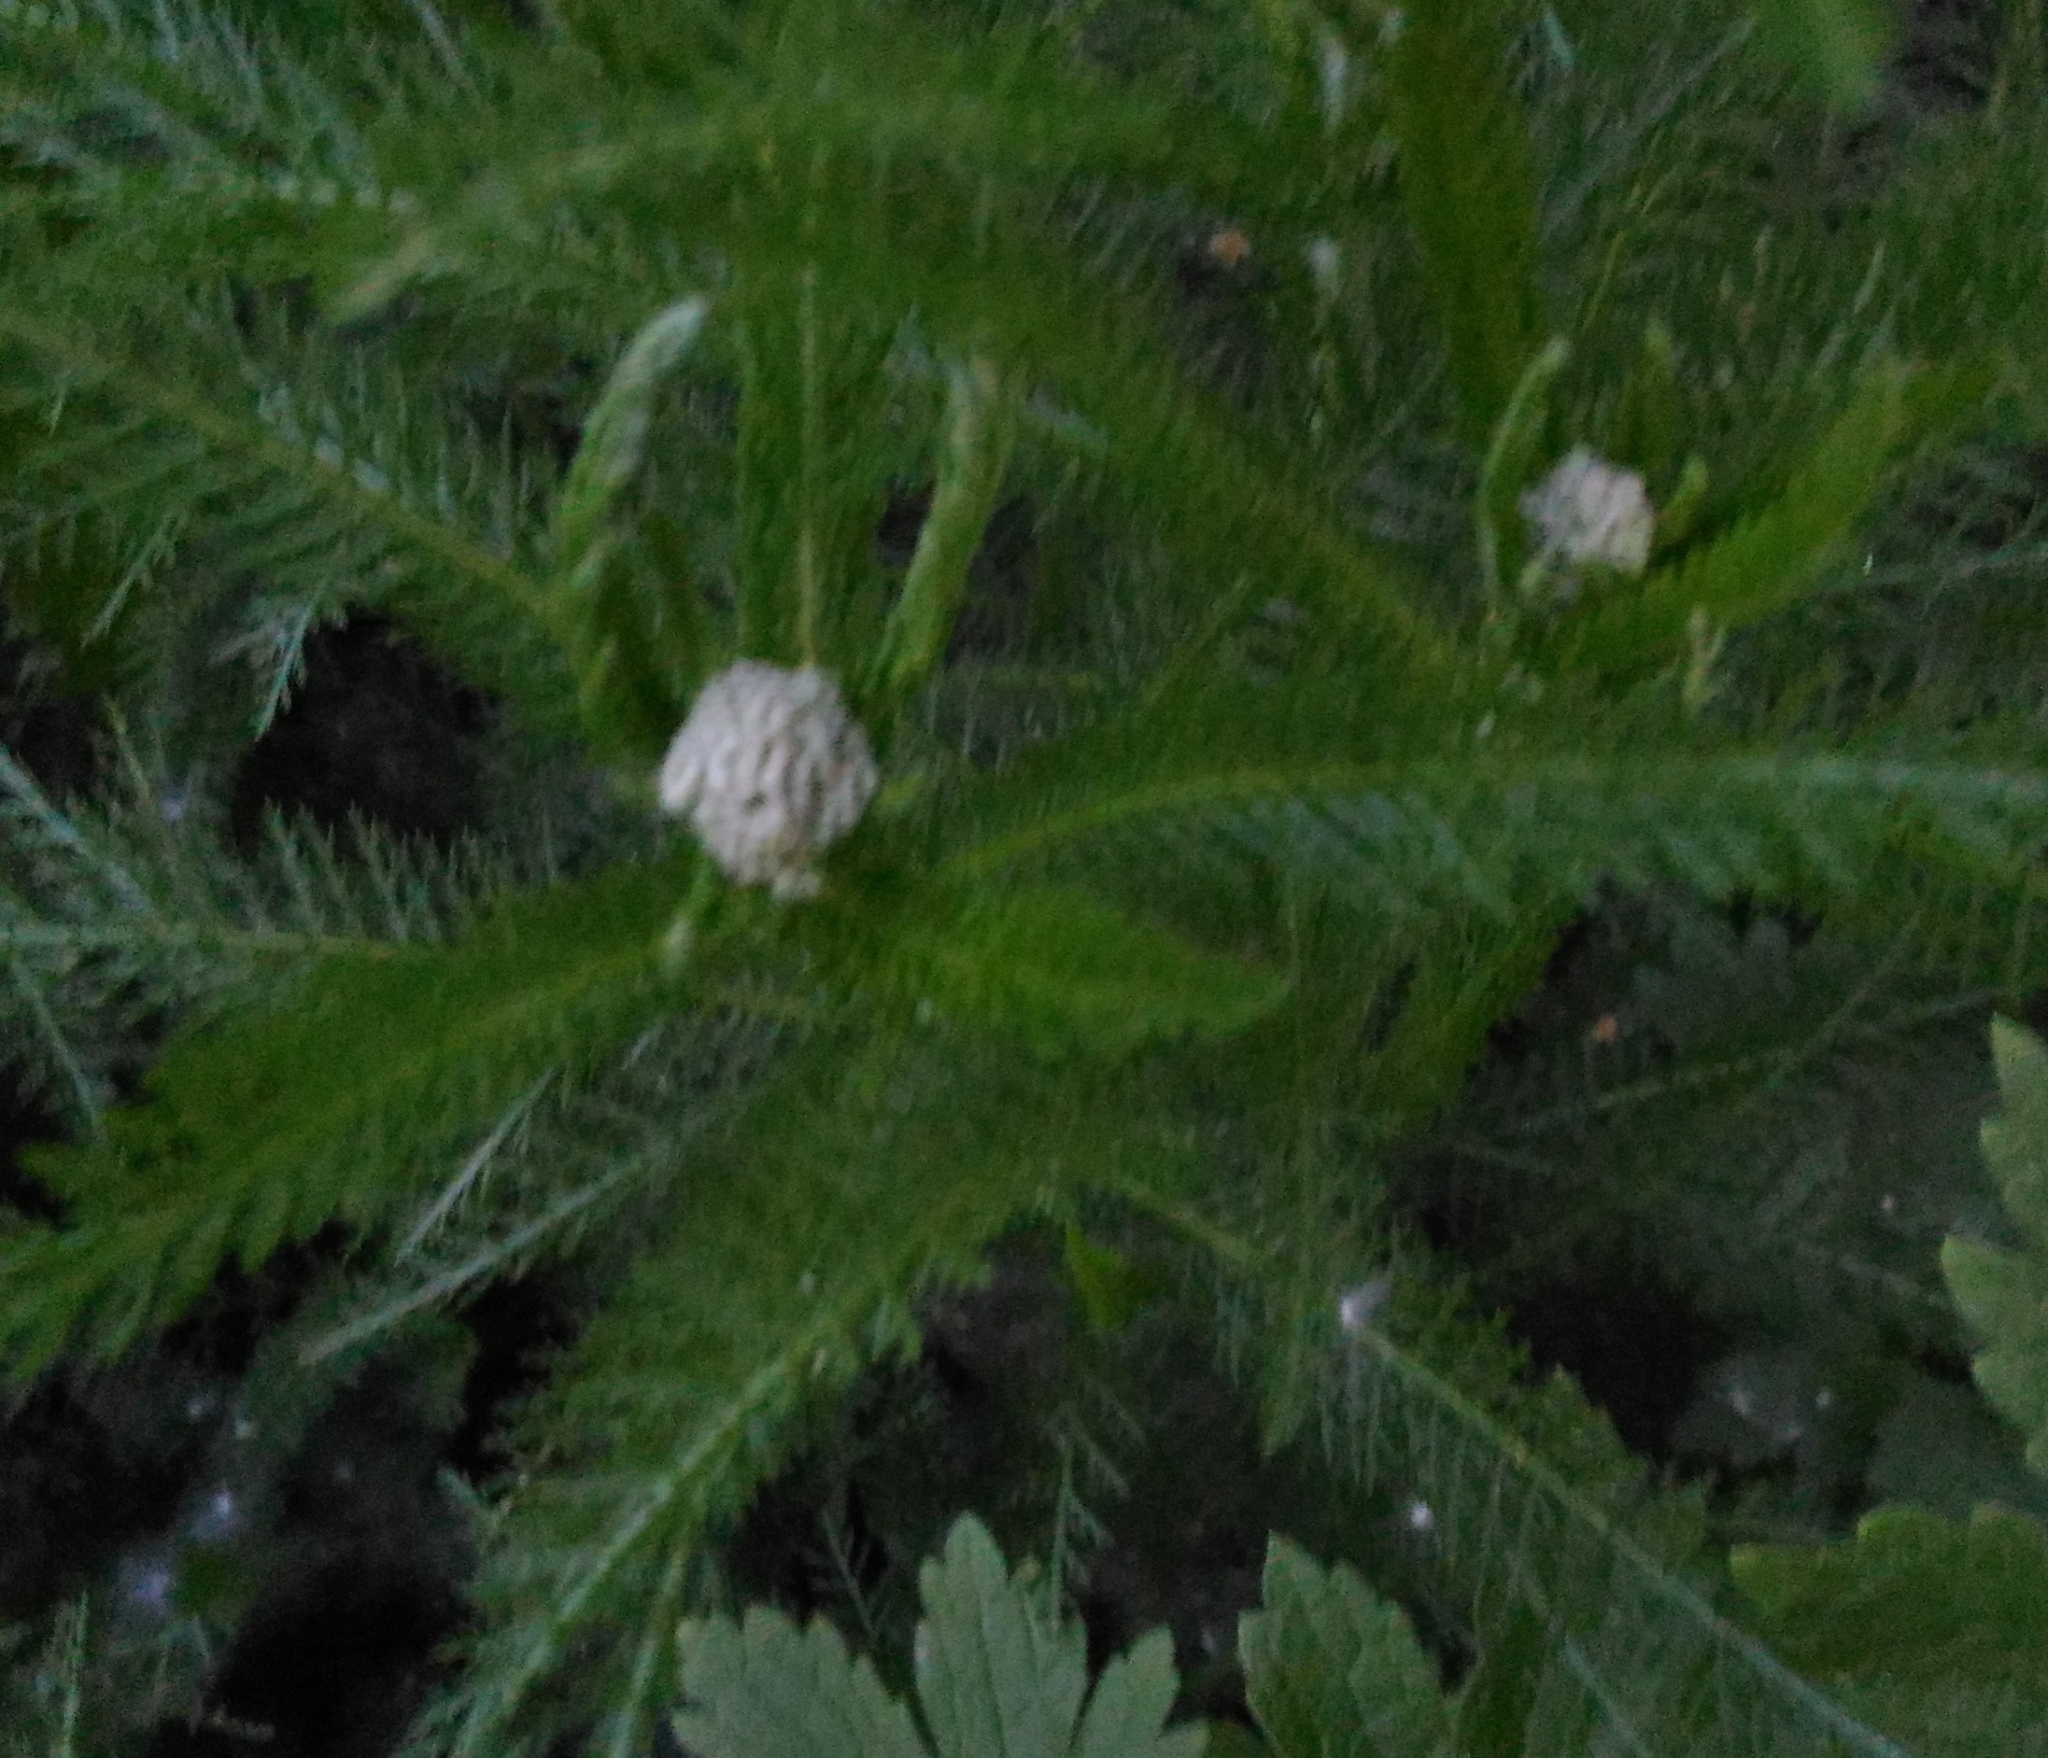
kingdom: Plantae
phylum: Tracheophyta
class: Magnoliopsida
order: Asterales
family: Asteraceae
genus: Achillea
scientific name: Achillea millefolium
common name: Yarrow
